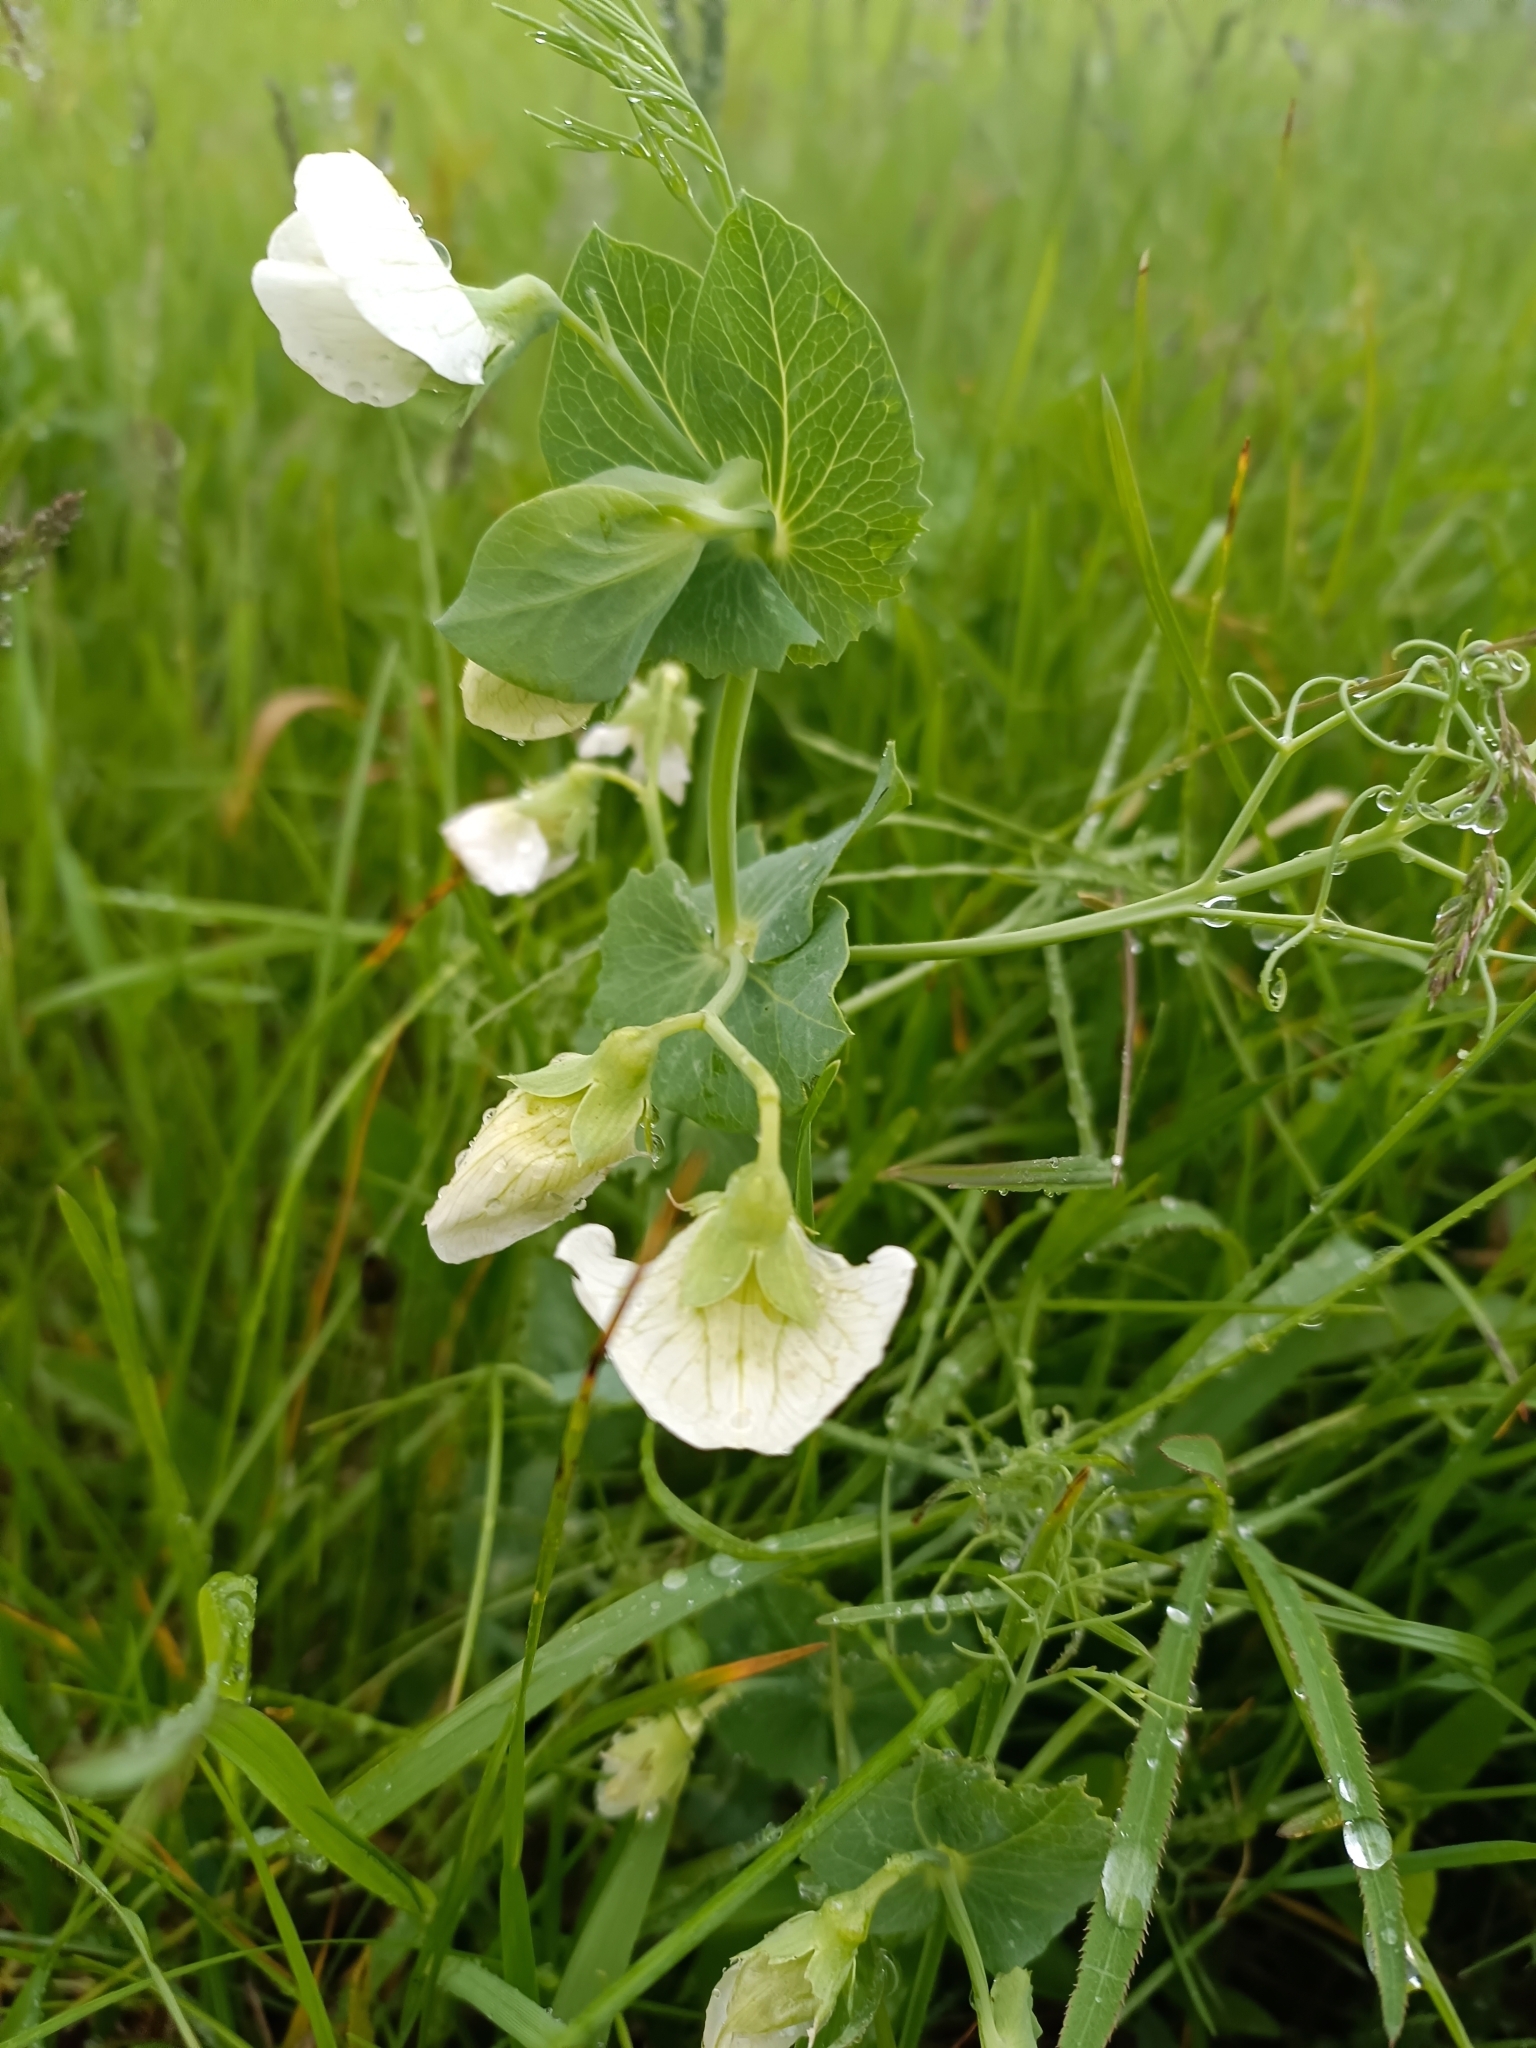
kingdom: Plantae
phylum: Tracheophyta
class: Magnoliopsida
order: Fabales
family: Fabaceae
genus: Lathyrus
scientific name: Lathyrus oleraceus
